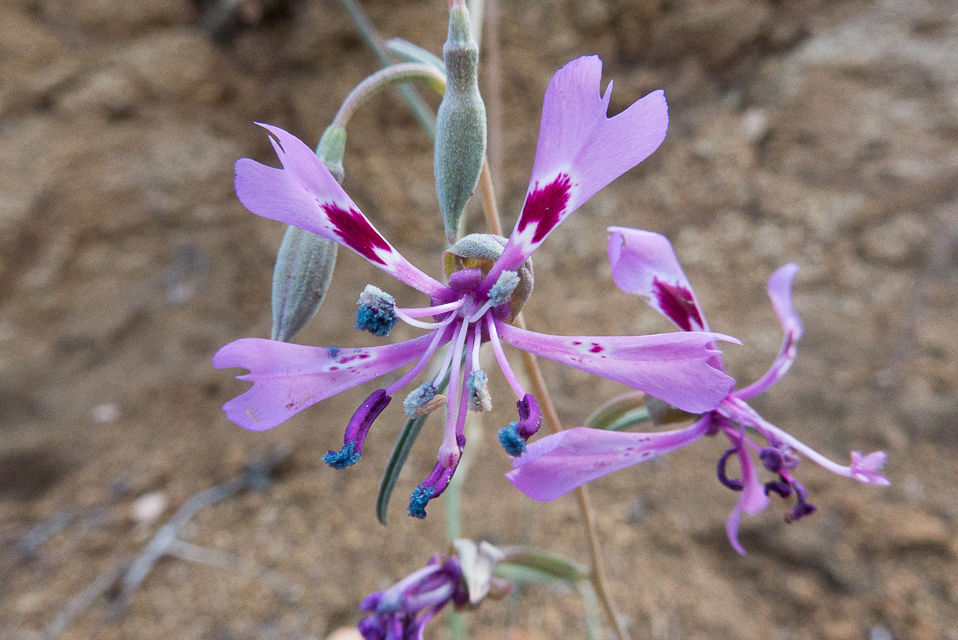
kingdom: Plantae
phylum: Tracheophyta
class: Magnoliopsida
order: Myrtales
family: Onagraceae
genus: Clarkia
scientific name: Clarkia xantiana
